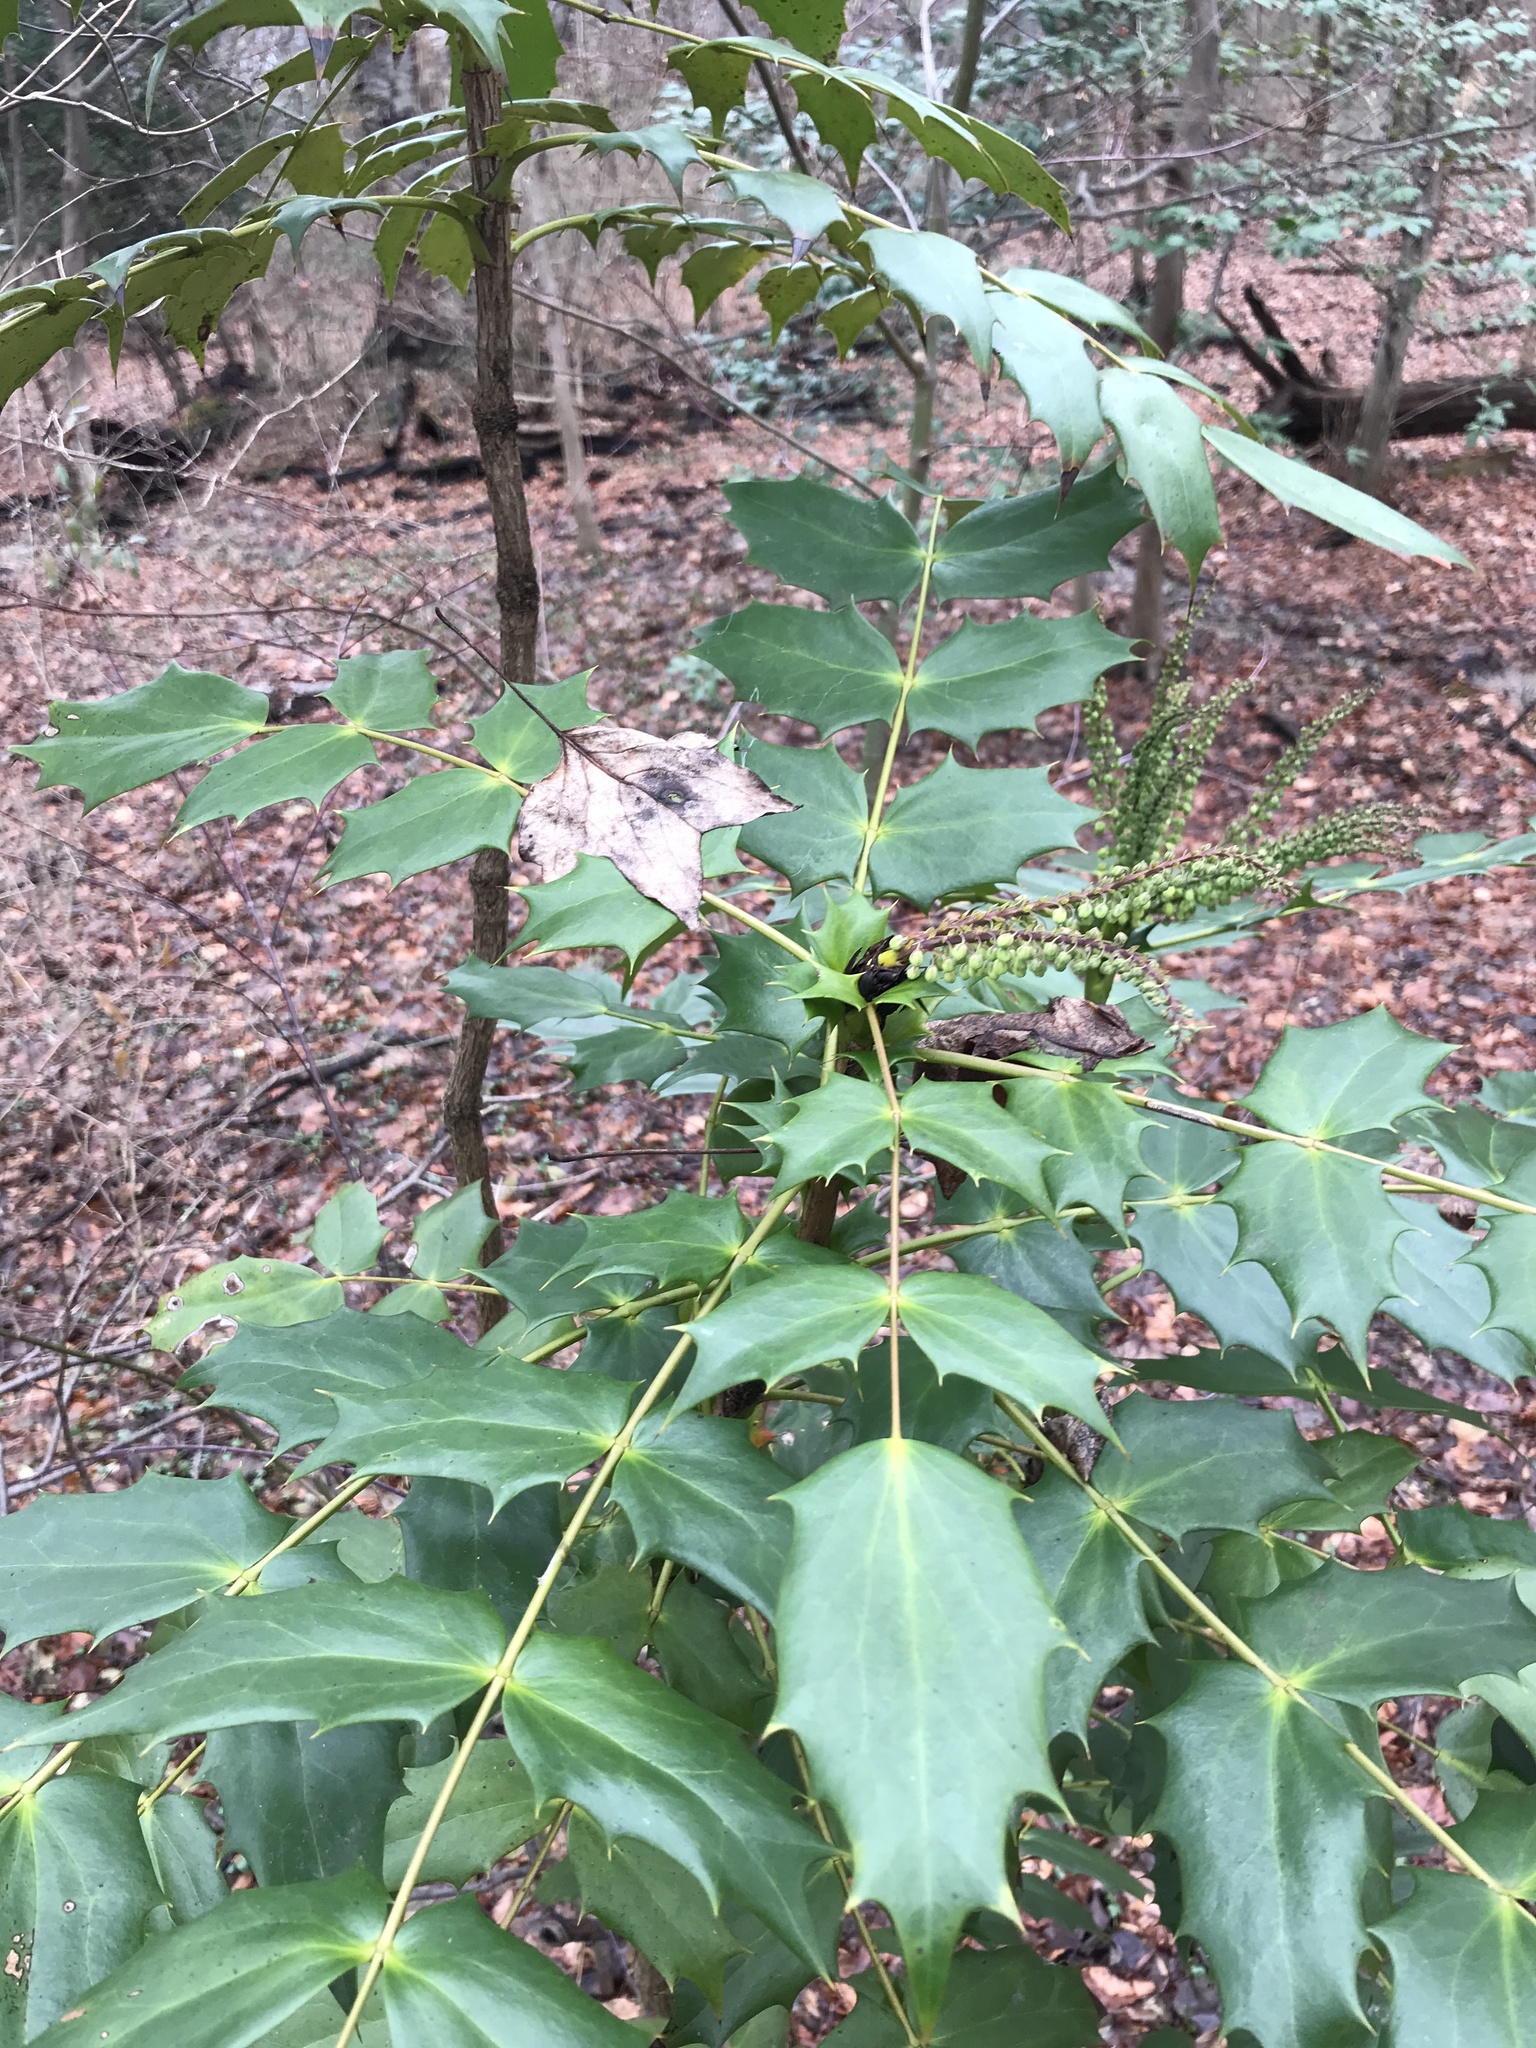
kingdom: Plantae
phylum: Tracheophyta
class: Magnoliopsida
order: Ranunculales
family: Berberidaceae
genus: Mahonia
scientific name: Mahonia bealei
